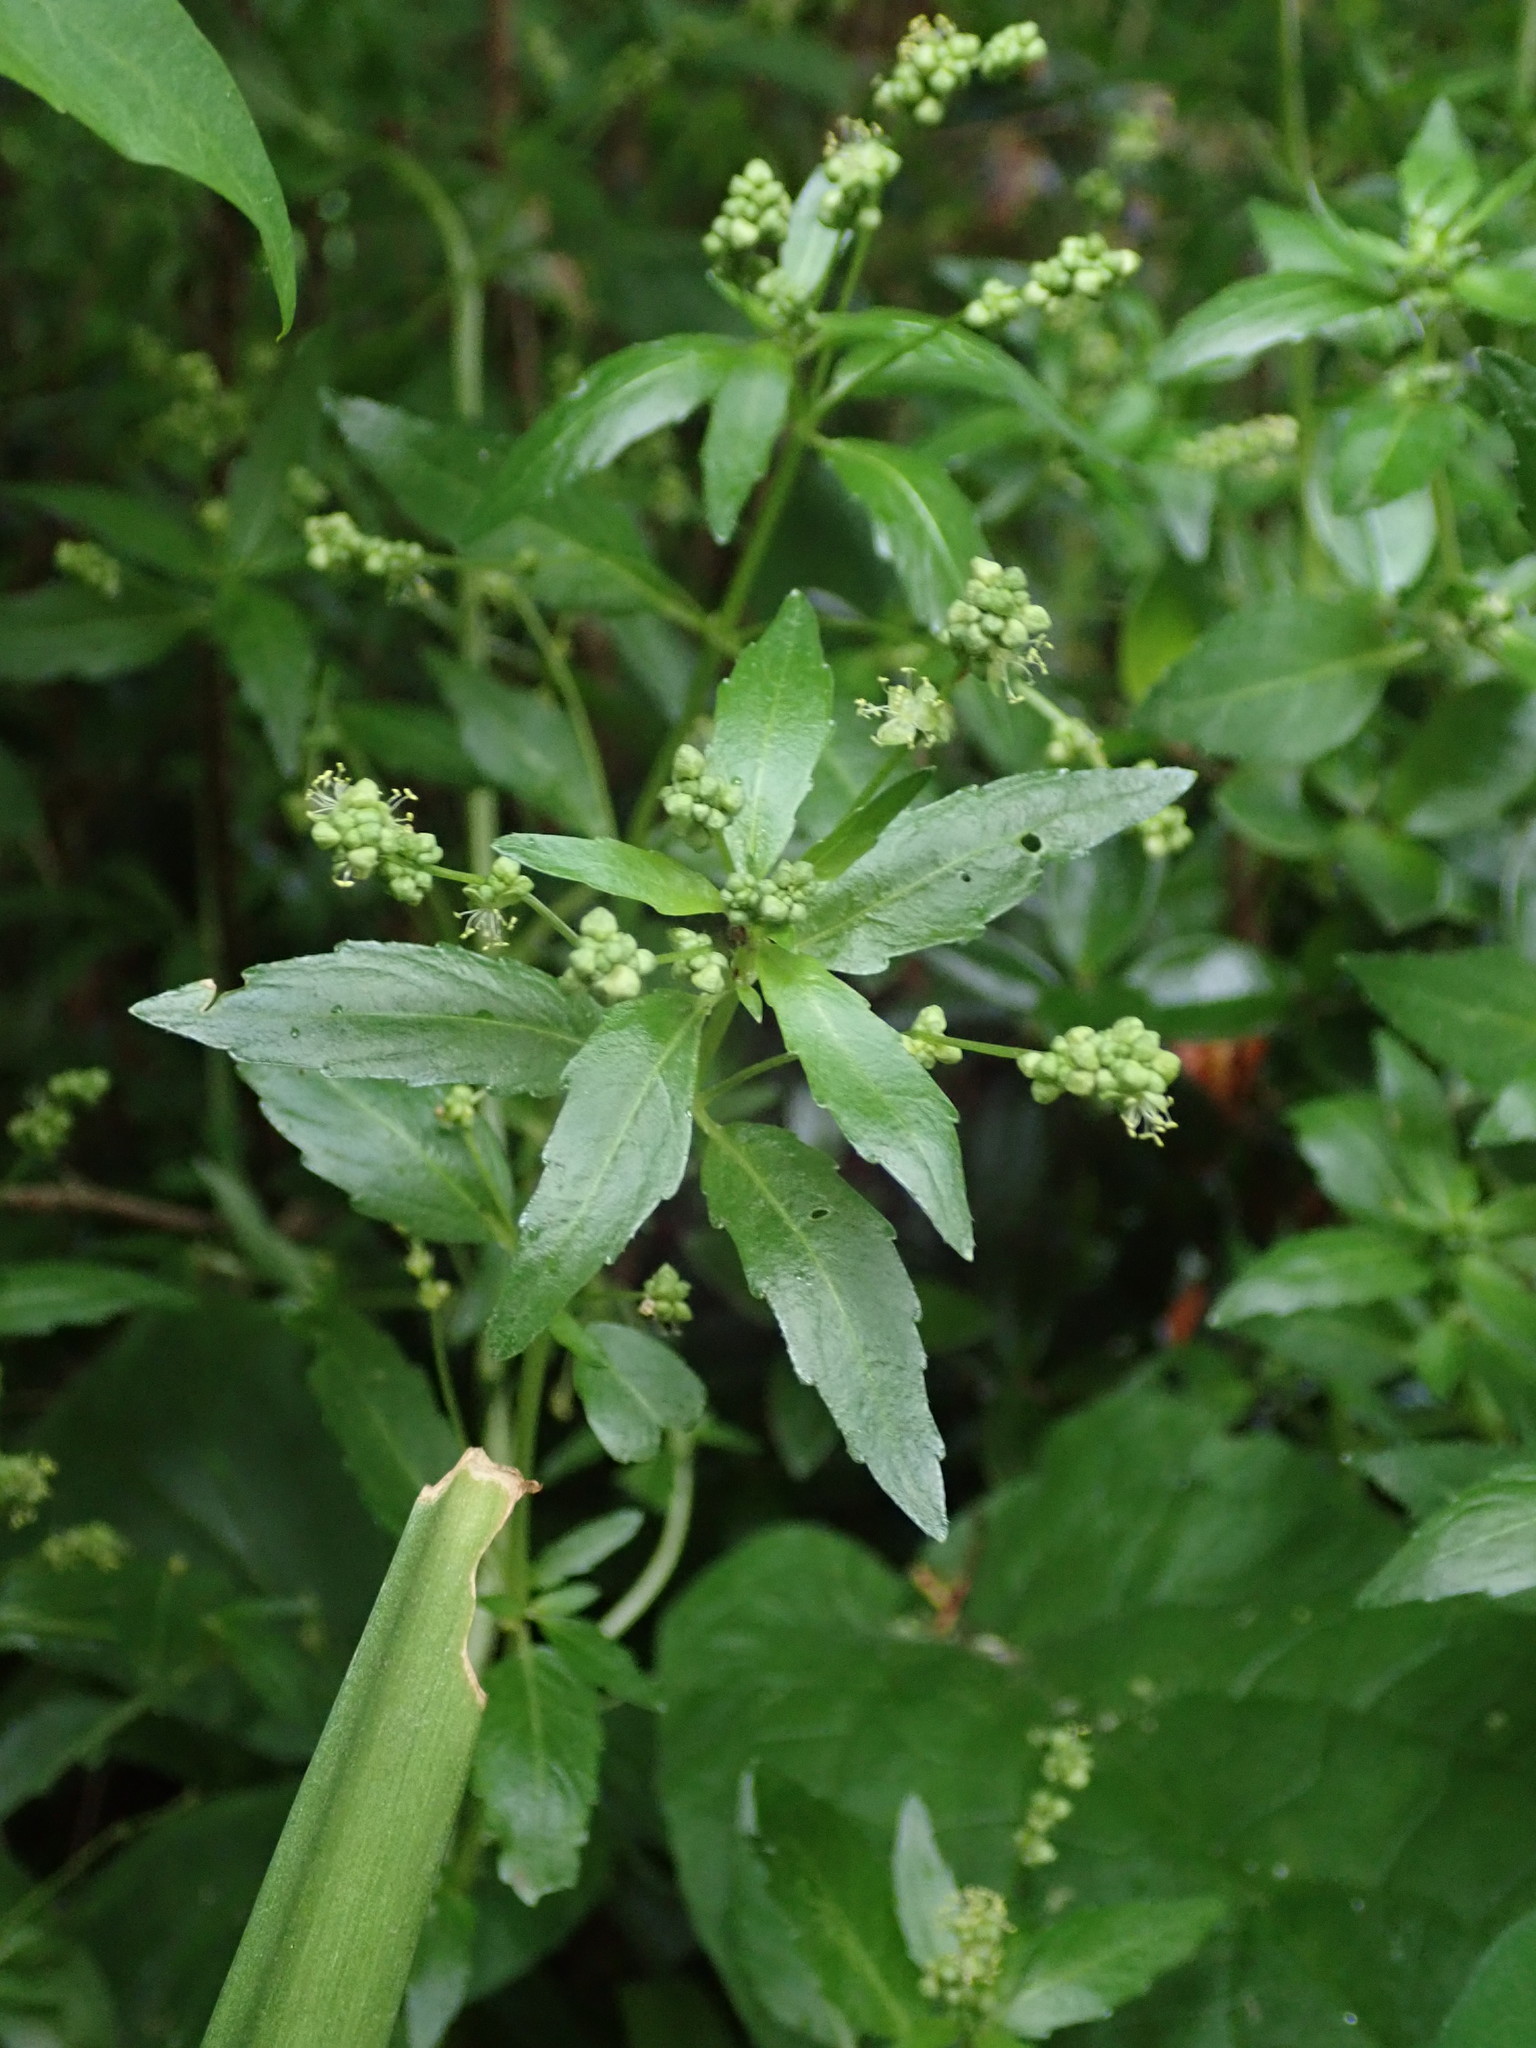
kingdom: Plantae
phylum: Tracheophyta
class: Magnoliopsida
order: Malpighiales
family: Euphorbiaceae
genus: Mercurialis
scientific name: Mercurialis annua
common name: Annual mercury
